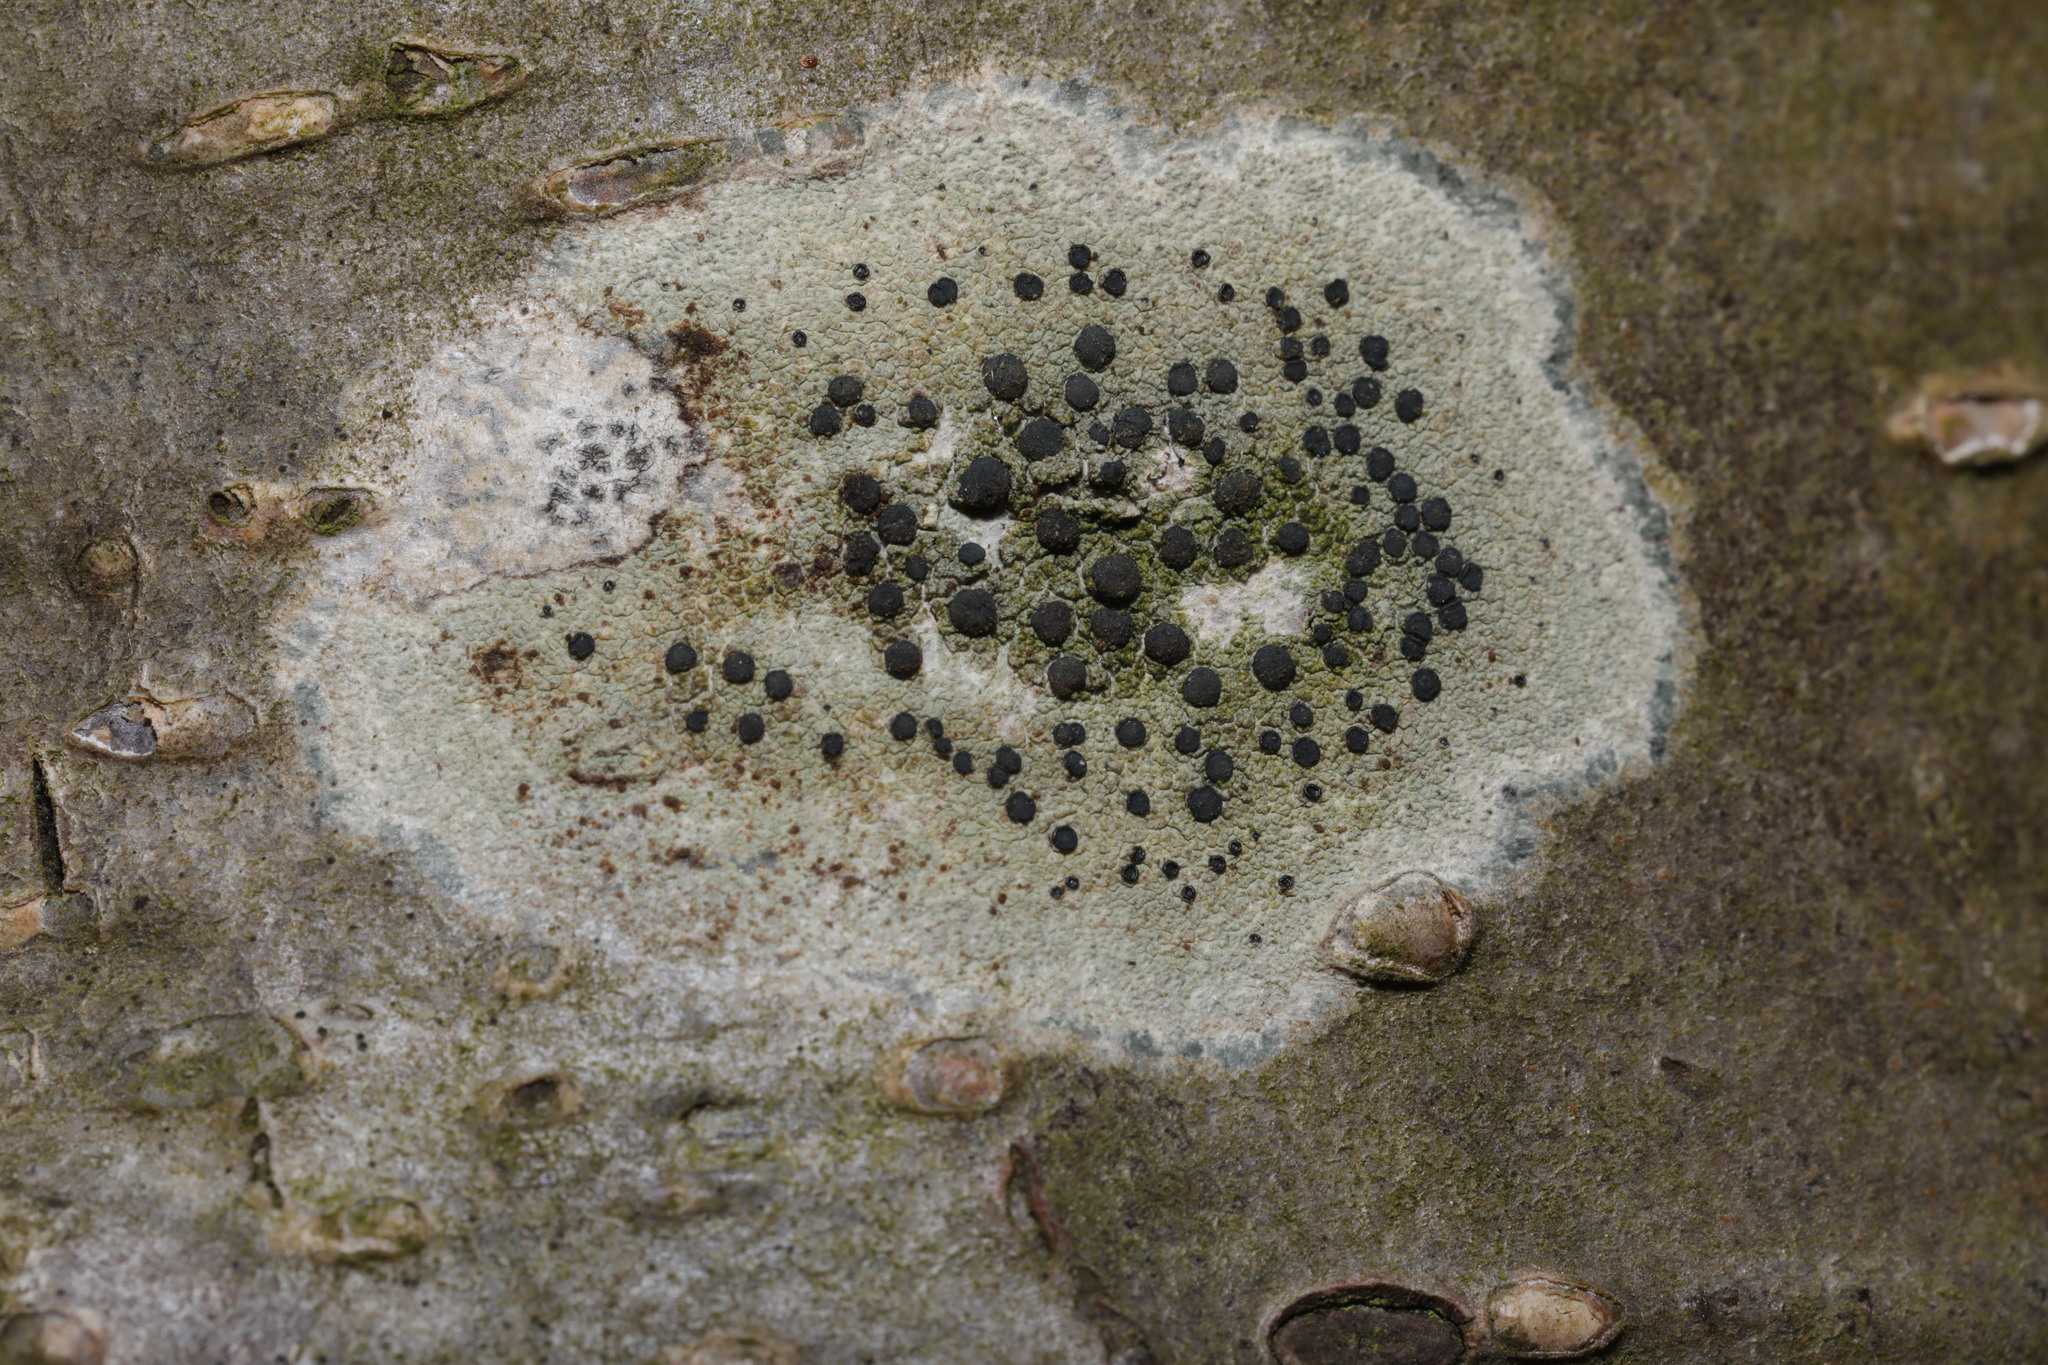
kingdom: Fungi
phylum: Ascomycota
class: Lecanoromycetes
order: Lecanorales
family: Lecanoraceae
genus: Lecidella
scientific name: Lecidella elaeochroma
